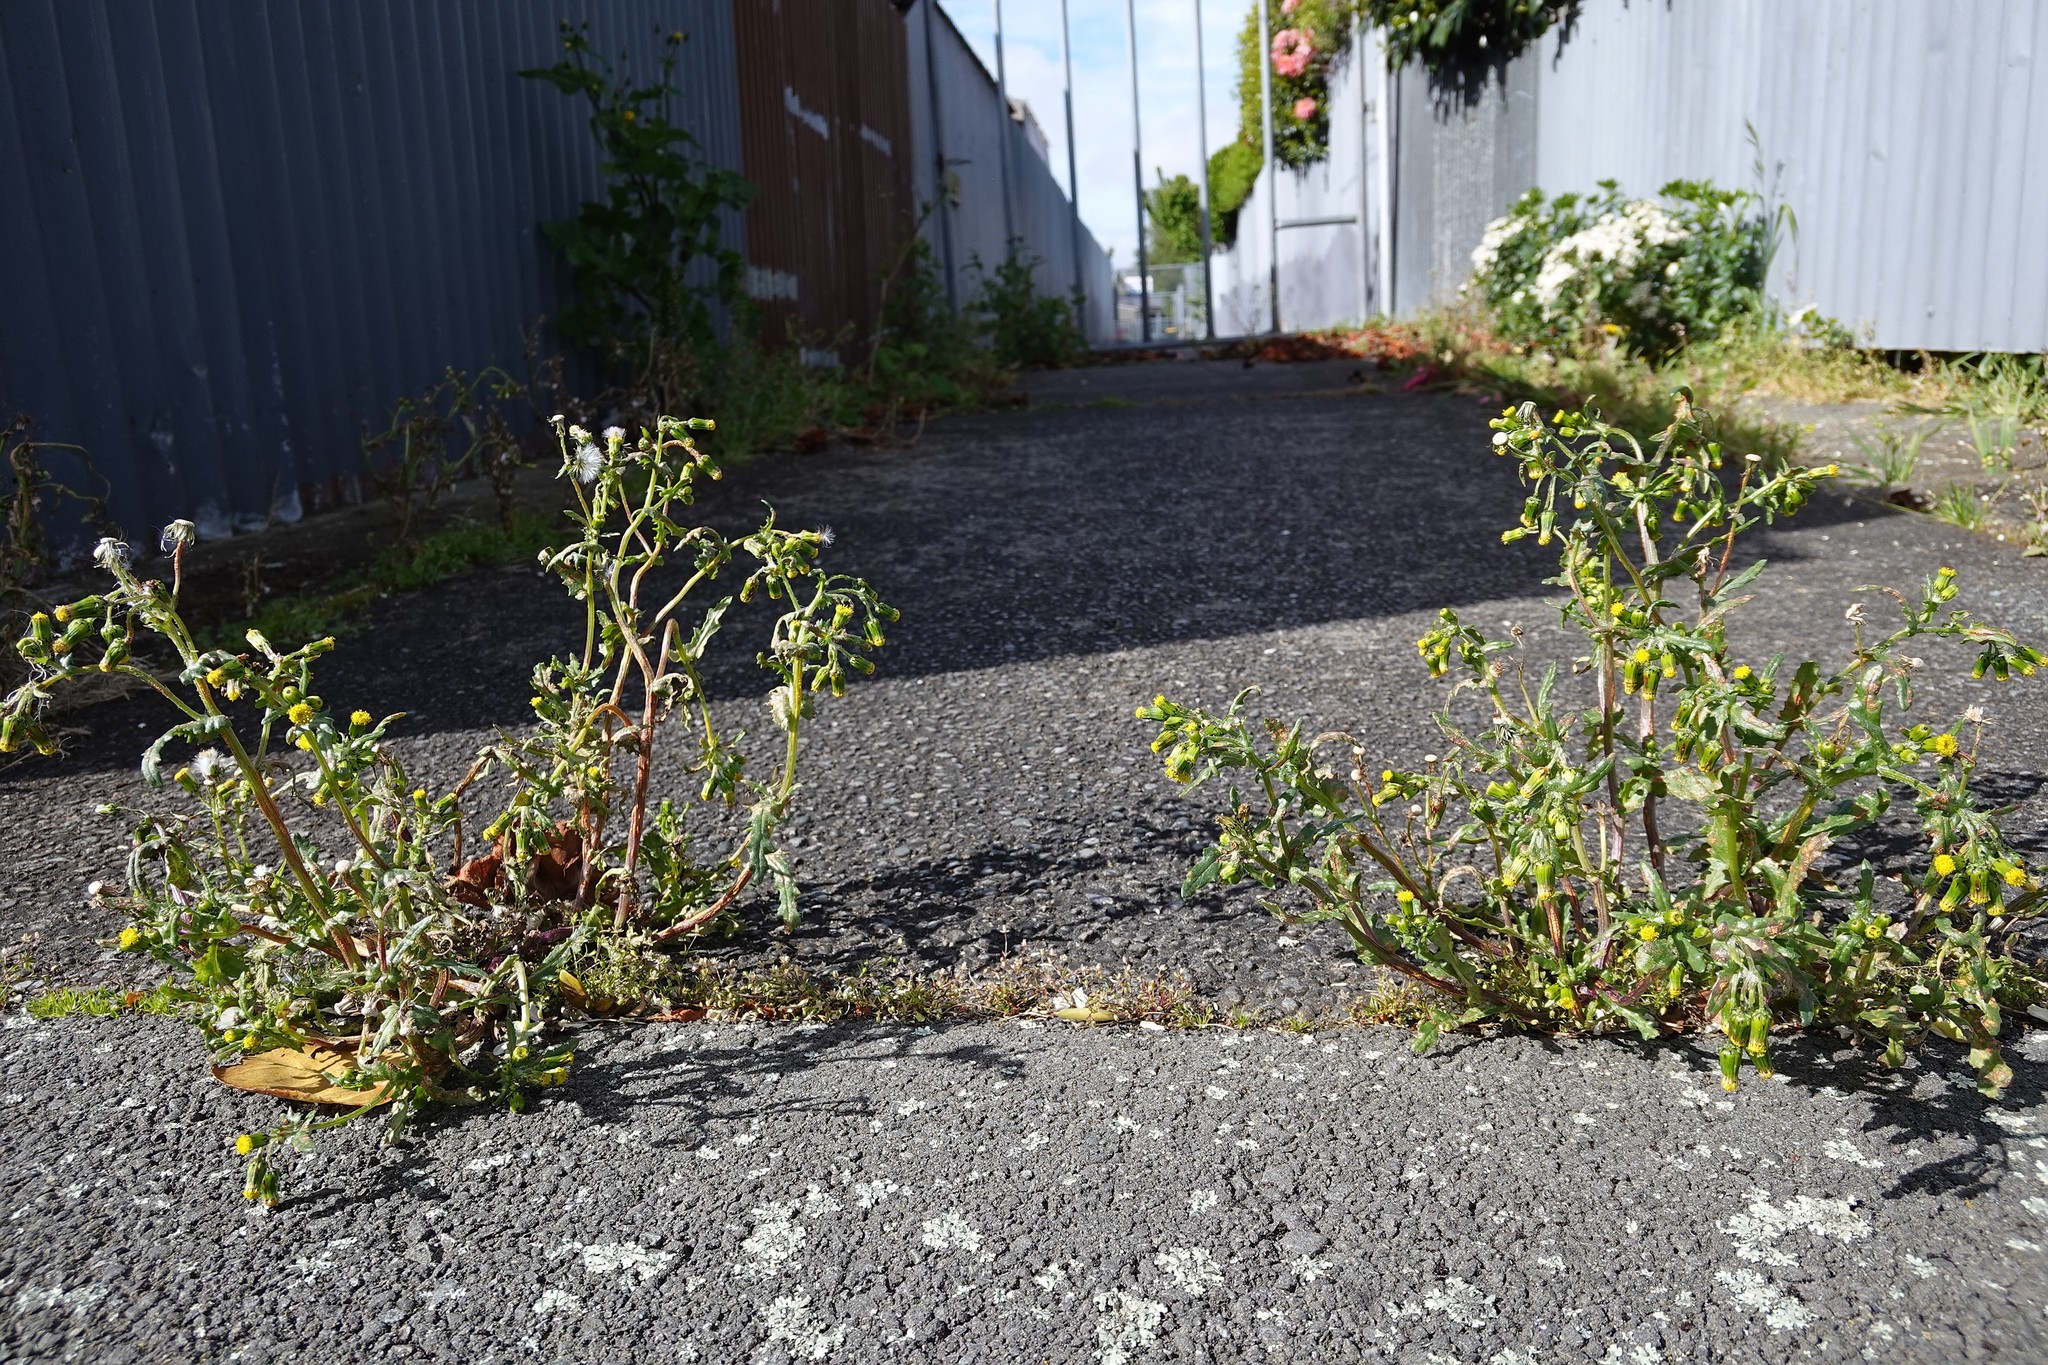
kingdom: Plantae
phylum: Tracheophyta
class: Magnoliopsida
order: Asterales
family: Asteraceae
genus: Senecio
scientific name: Senecio vulgaris
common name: Old-man-in-the-spring
